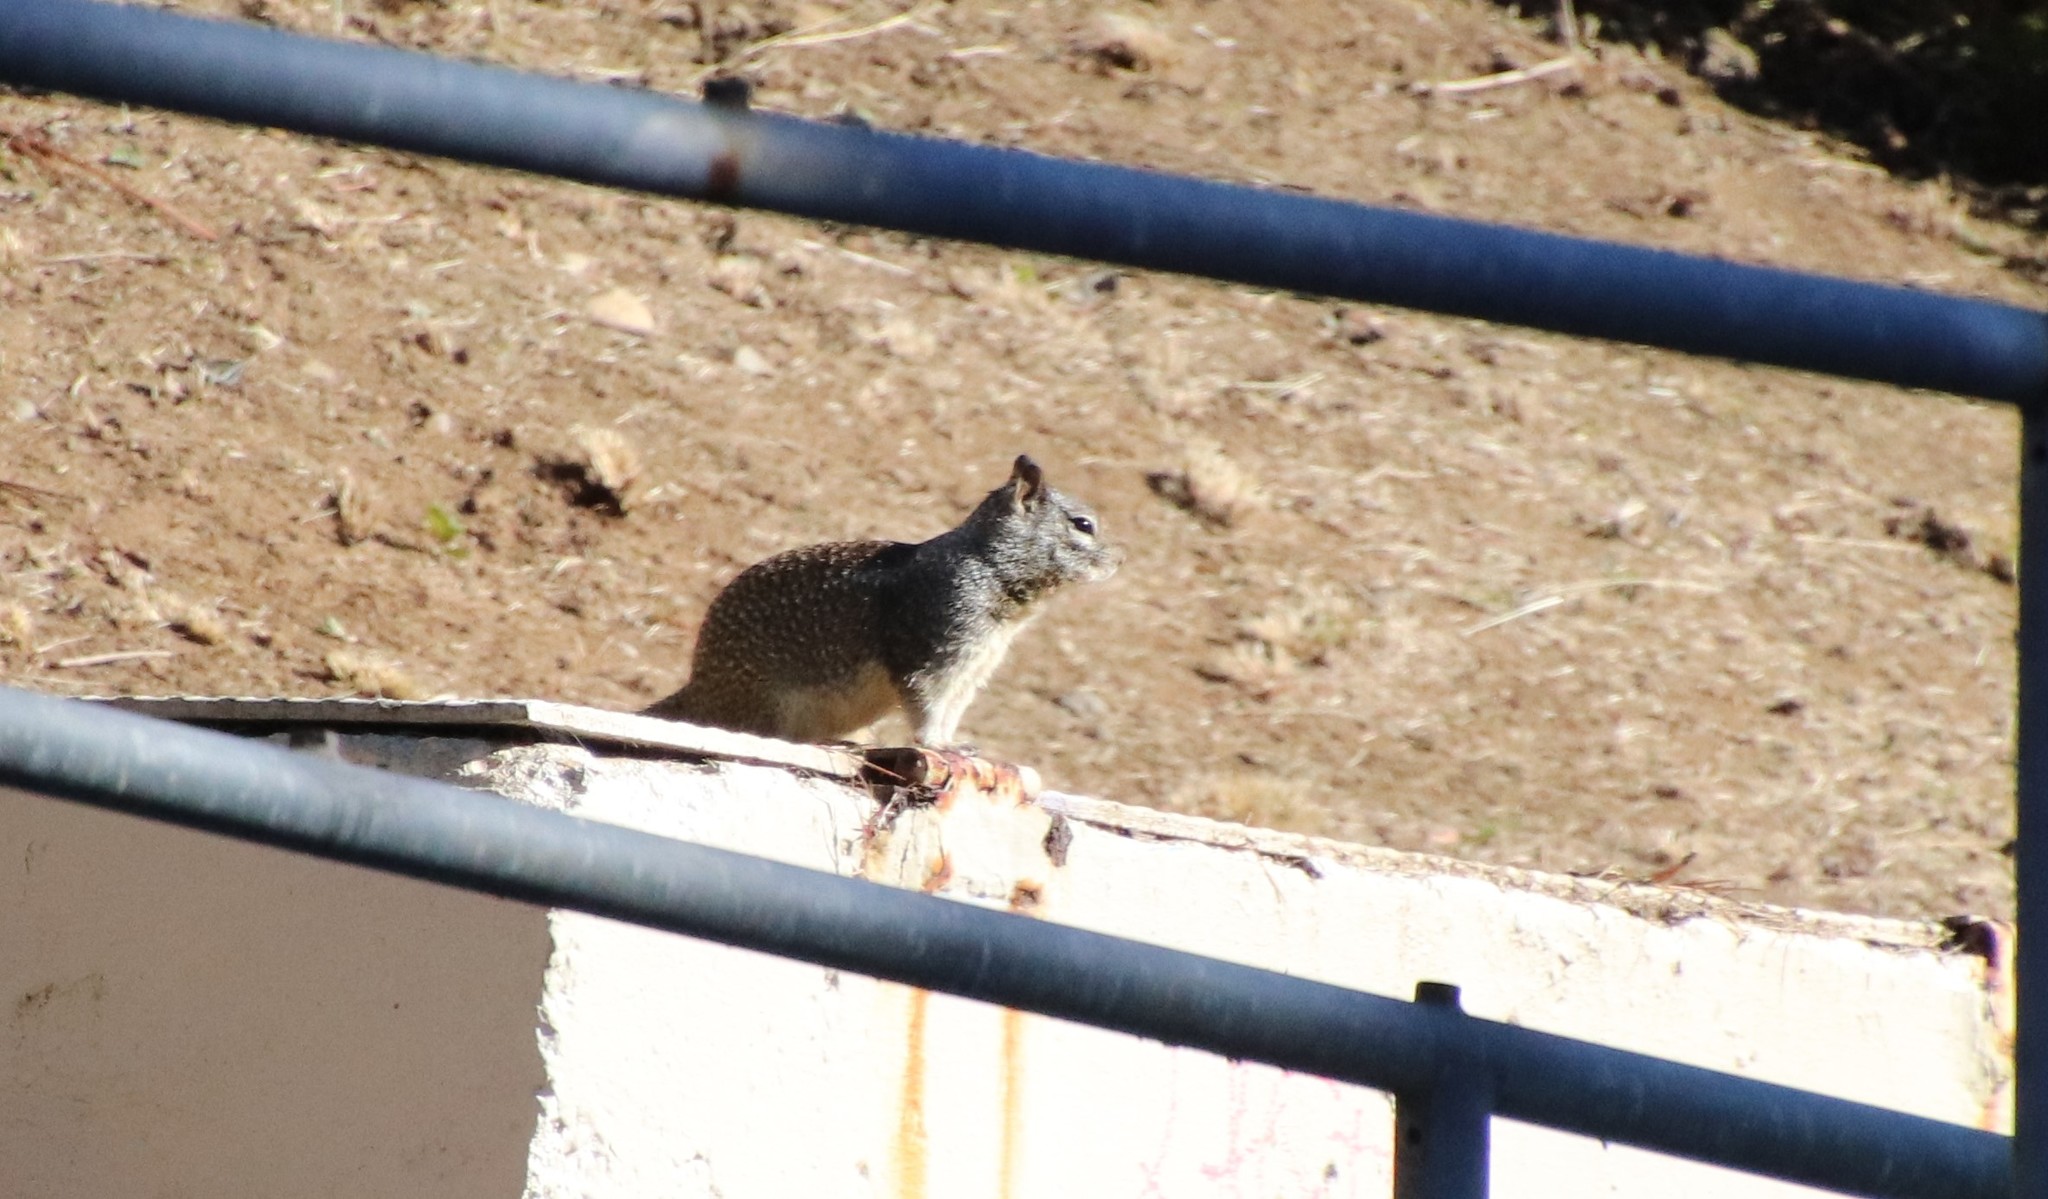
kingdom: Animalia
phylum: Chordata
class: Mammalia
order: Rodentia
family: Sciuridae
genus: Otospermophilus
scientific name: Otospermophilus beecheyi
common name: California ground squirrel
